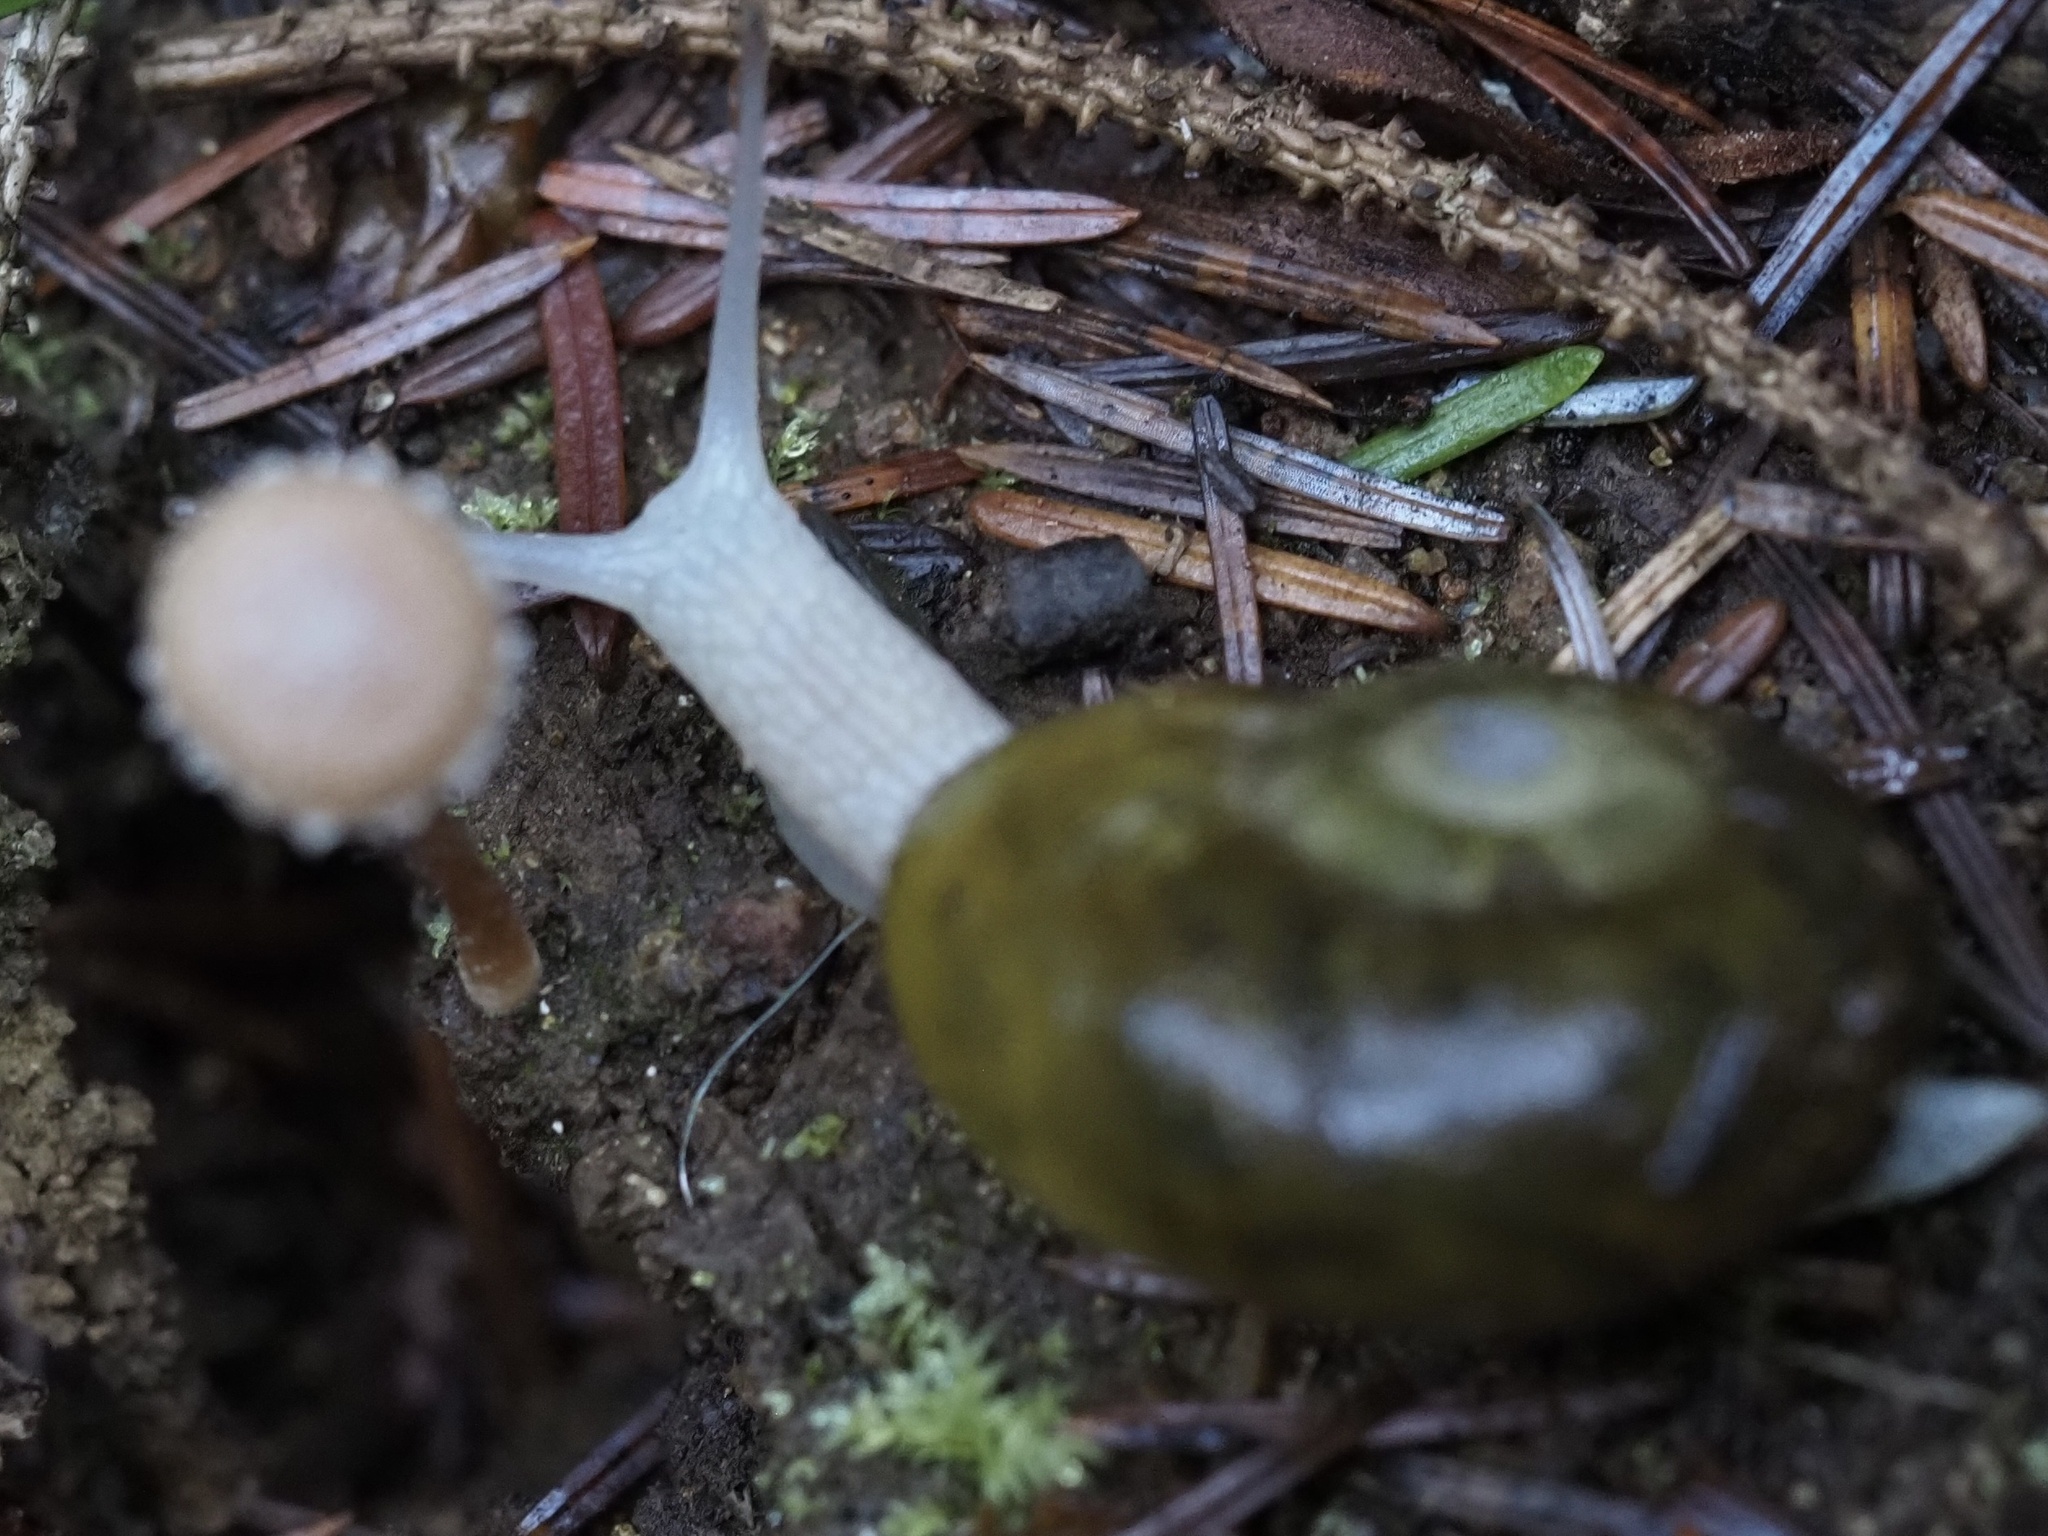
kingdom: Animalia
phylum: Mollusca
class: Gastropoda
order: Stylommatophora
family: Haplotrematidae
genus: Haplotrema
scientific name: Haplotrema vancouverense
